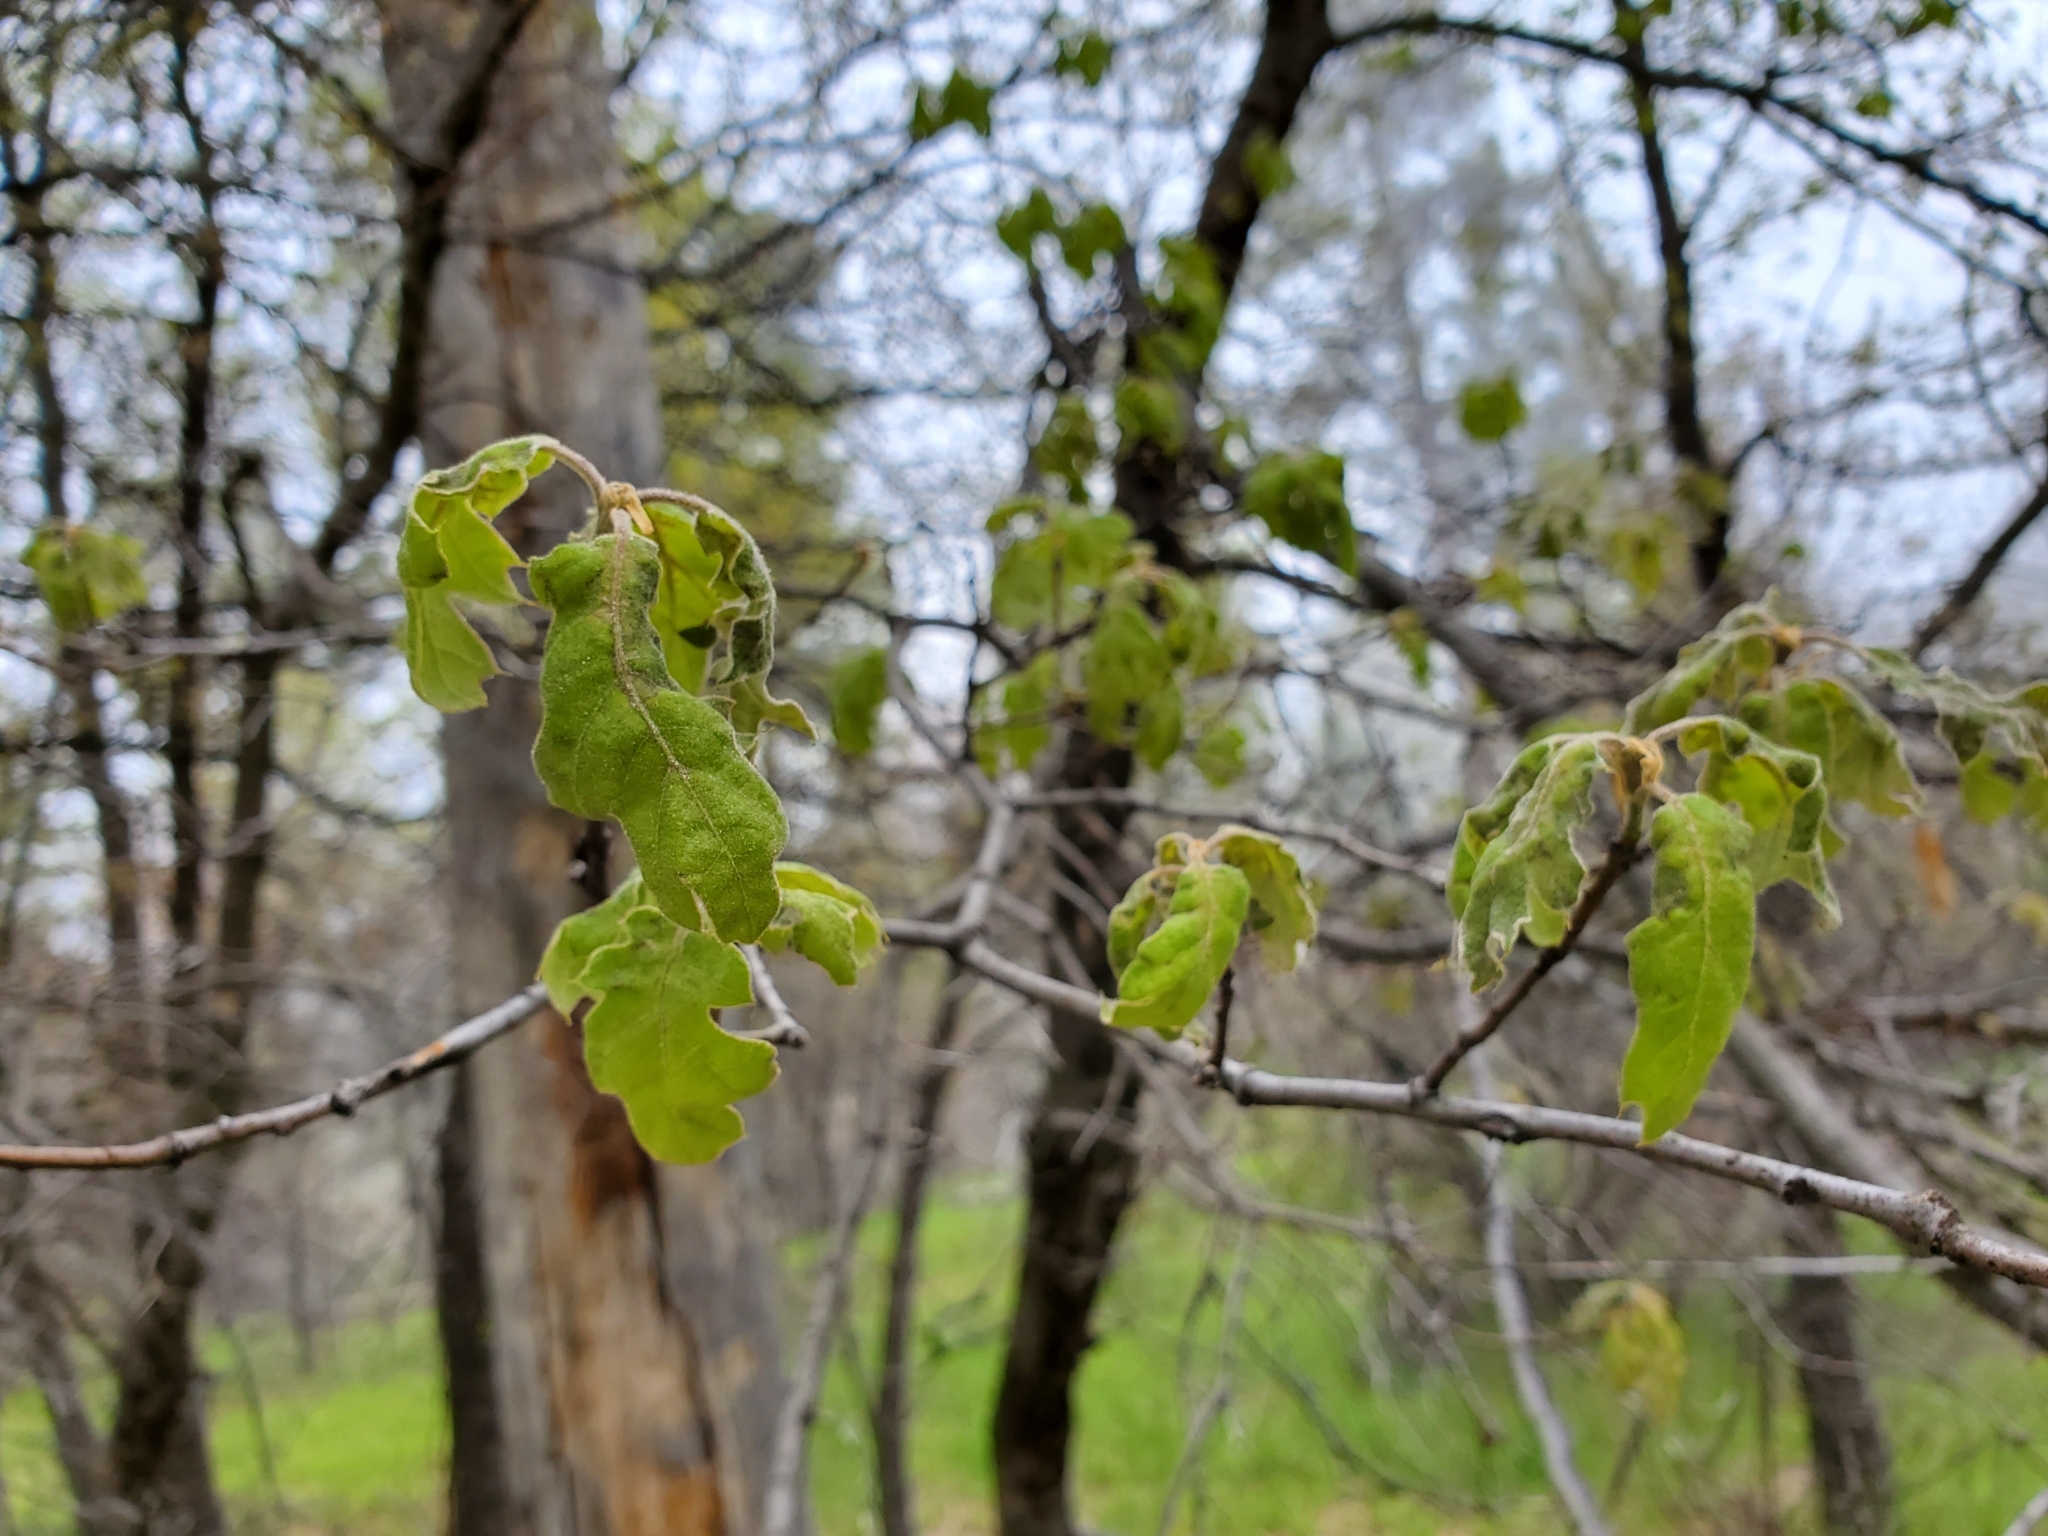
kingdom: Plantae
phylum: Tracheophyta
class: Magnoliopsida
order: Fagales
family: Fagaceae
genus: Quercus
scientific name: Quercus kelloggii
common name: California black oak
